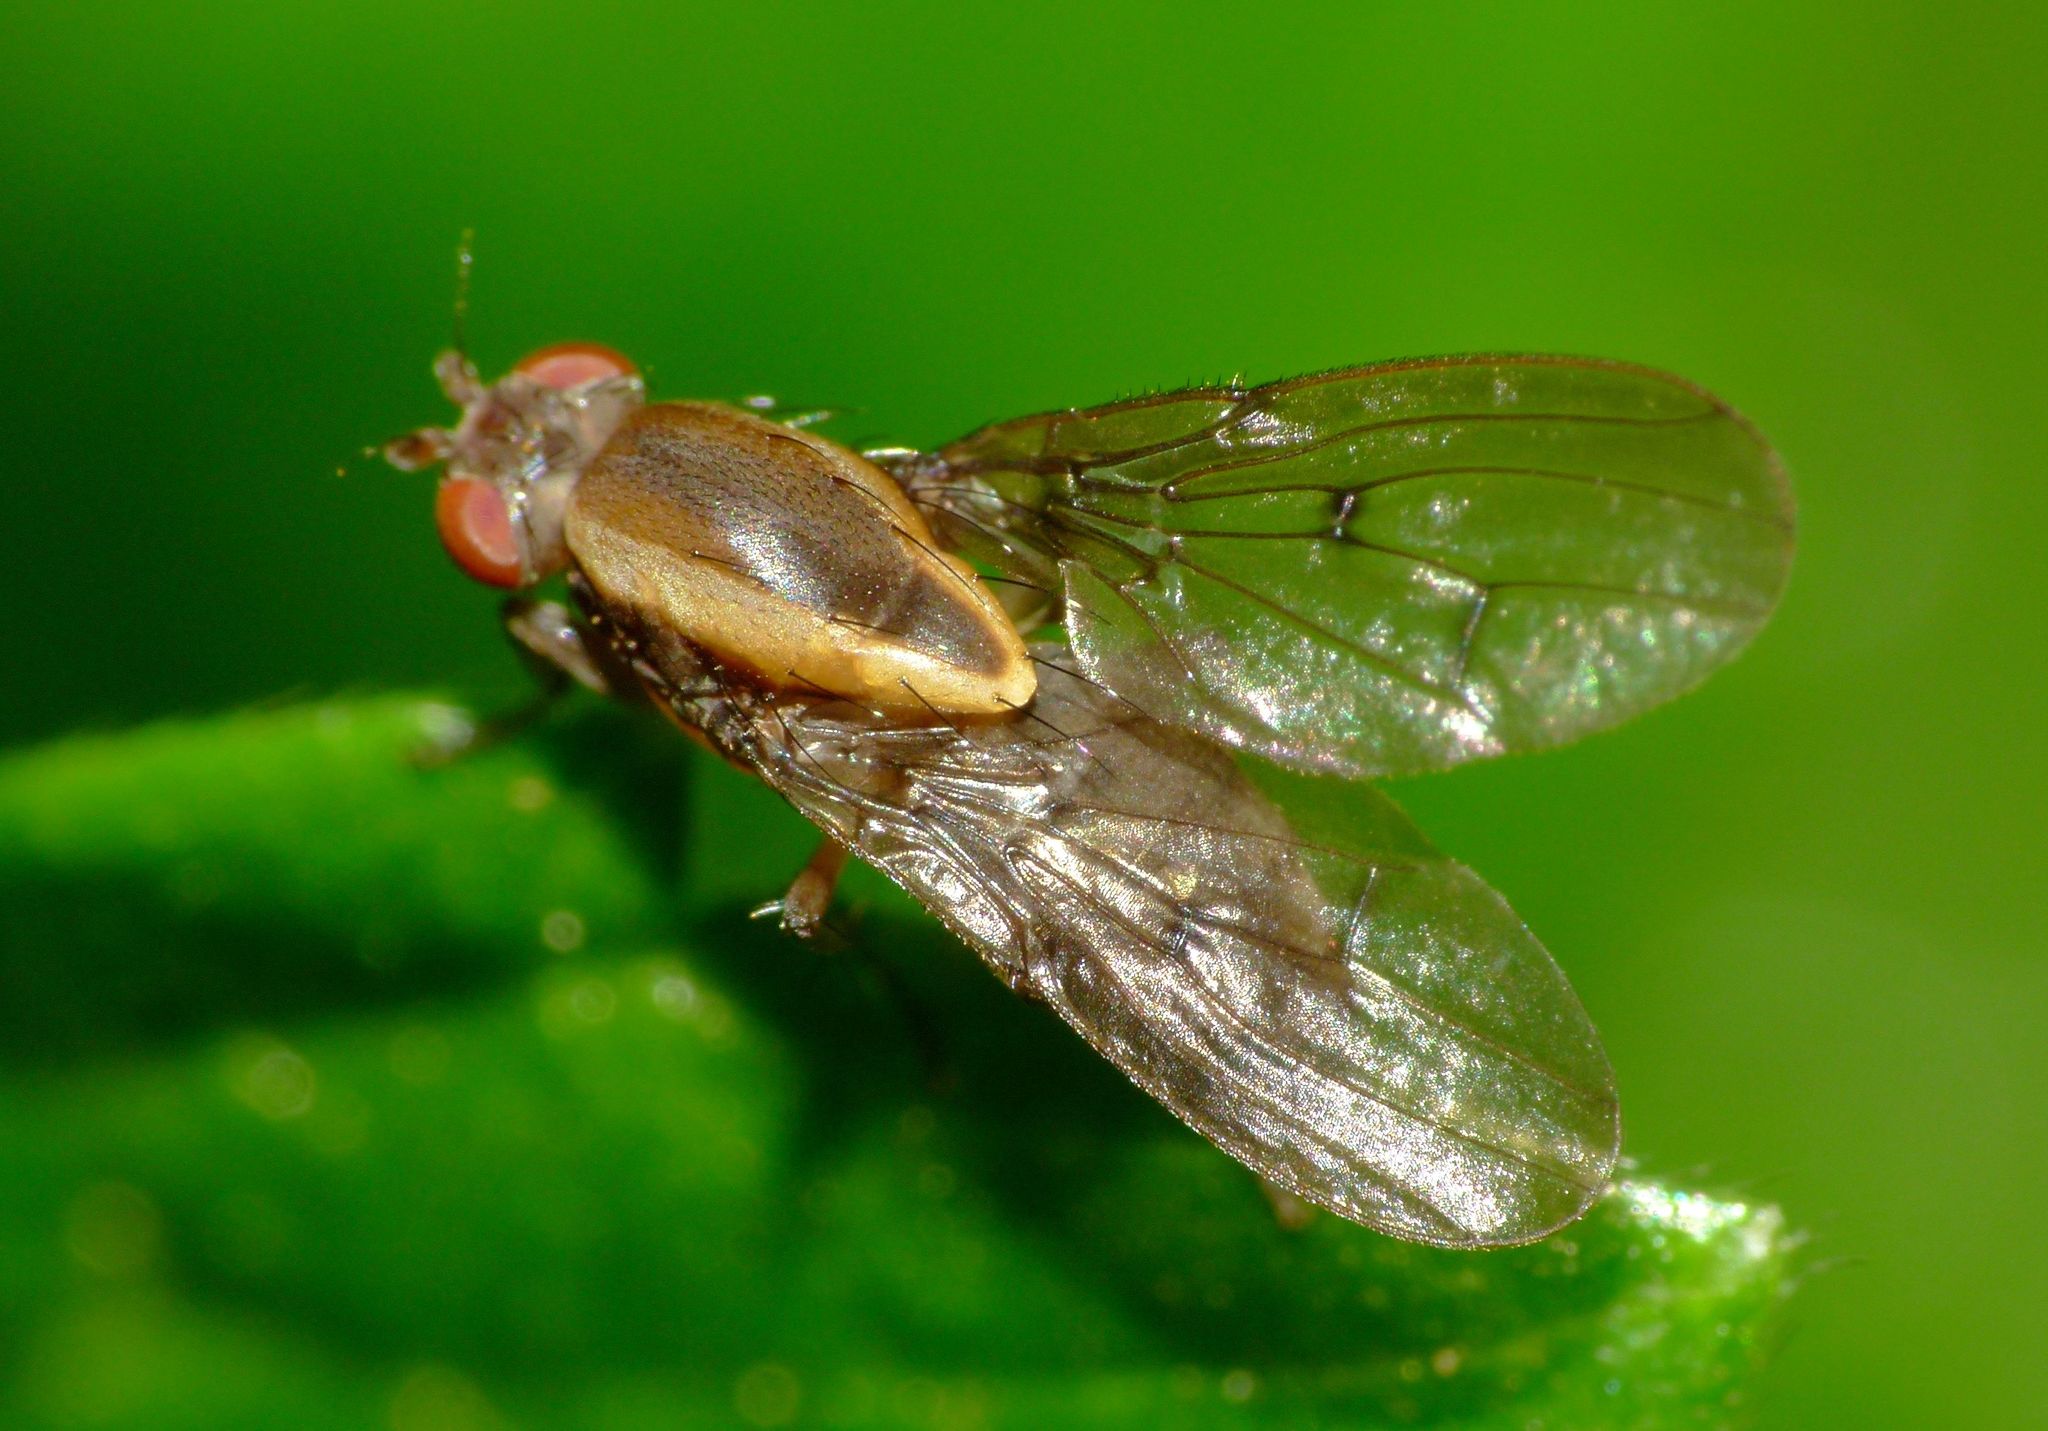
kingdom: Animalia
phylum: Arthropoda
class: Insecta
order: Diptera
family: Heleomyzidae
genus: Allophylopsis
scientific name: Allophylopsis scutellata
